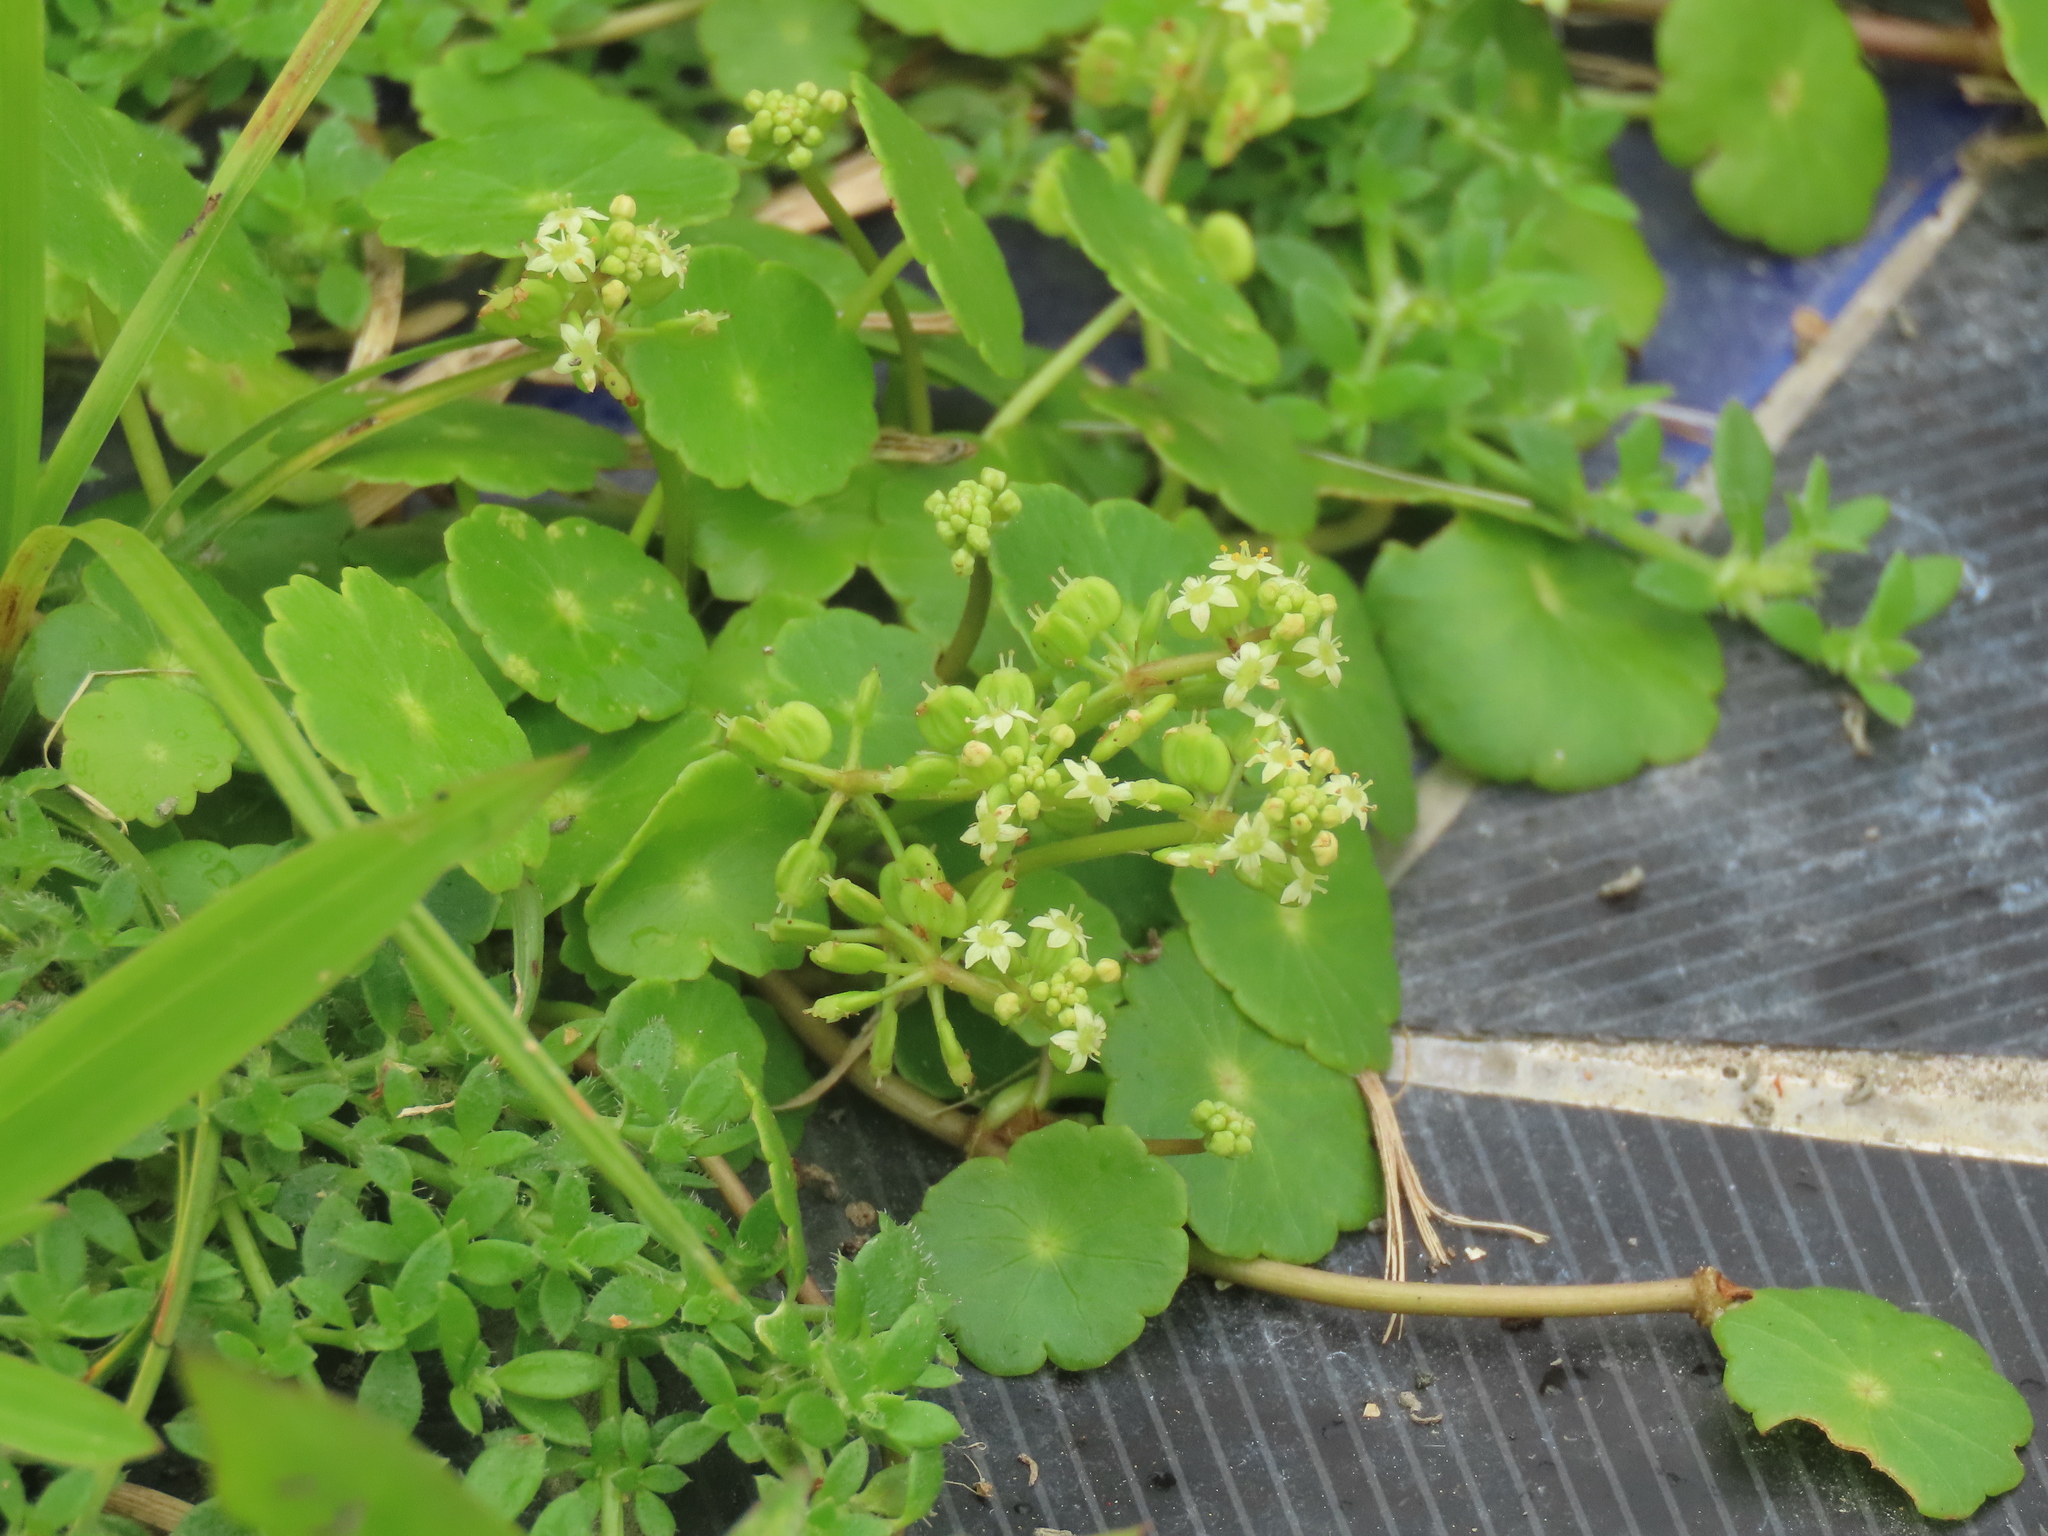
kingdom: Plantae
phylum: Tracheophyta
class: Magnoliopsida
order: Apiales
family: Araliaceae
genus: Hydrocotyle
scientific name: Hydrocotyle verticillata
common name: Whorled marshpennywort
